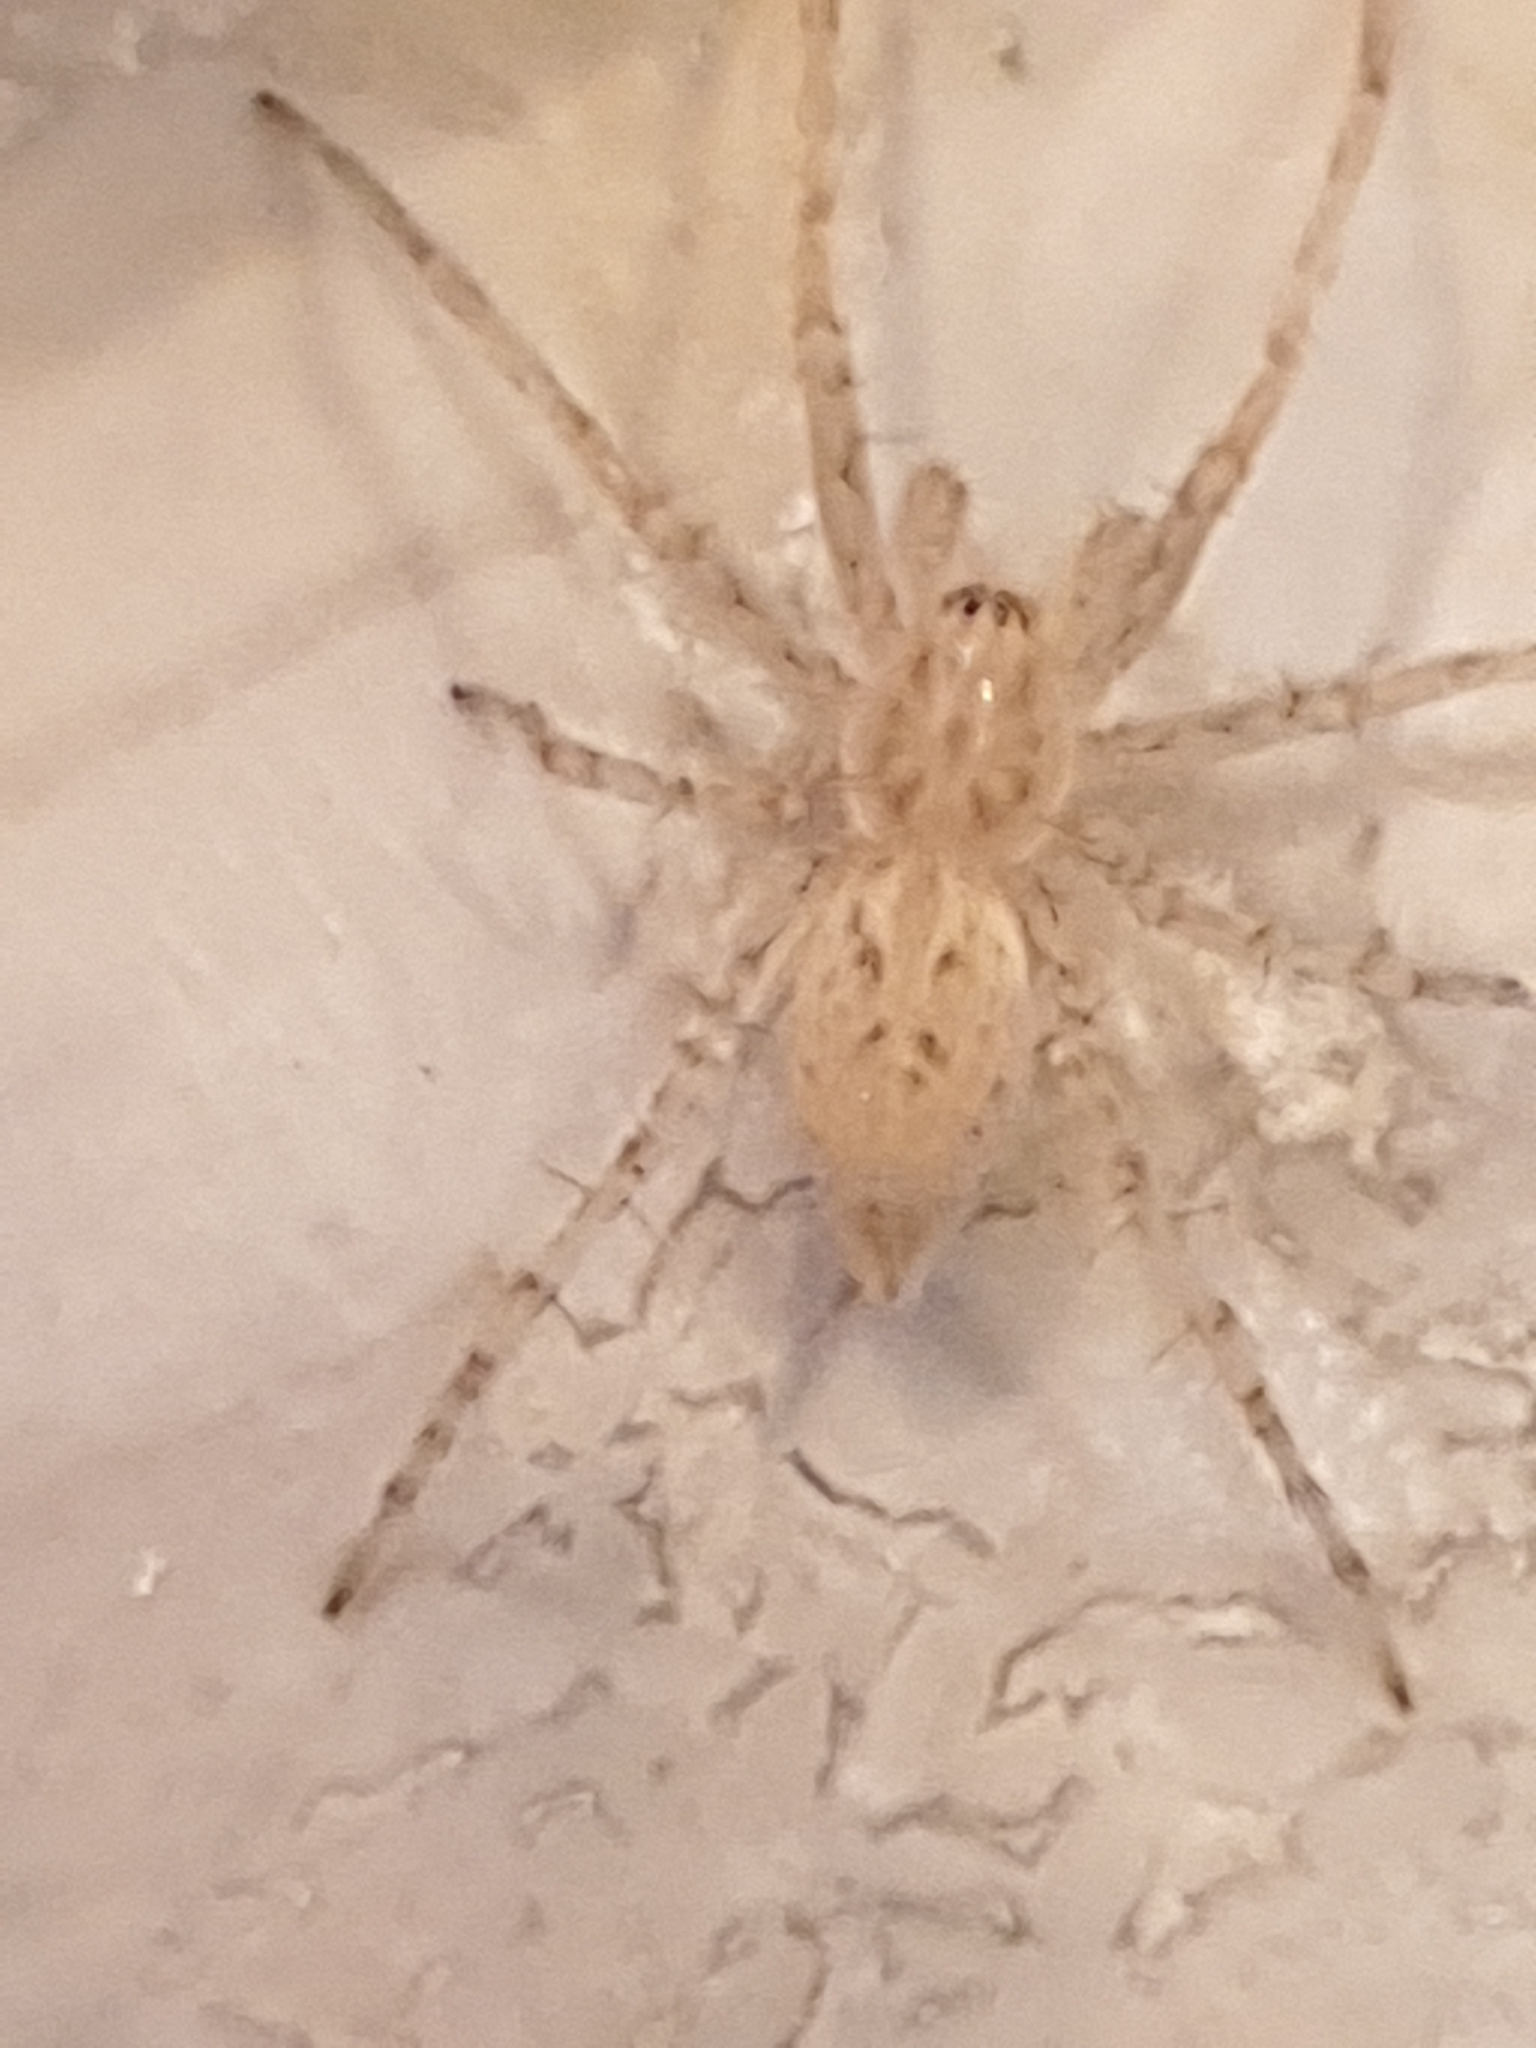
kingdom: Animalia
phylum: Arthropoda
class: Arachnida
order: Araneae
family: Anyphaenidae
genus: Anyphaena
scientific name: Anyphaena numida
